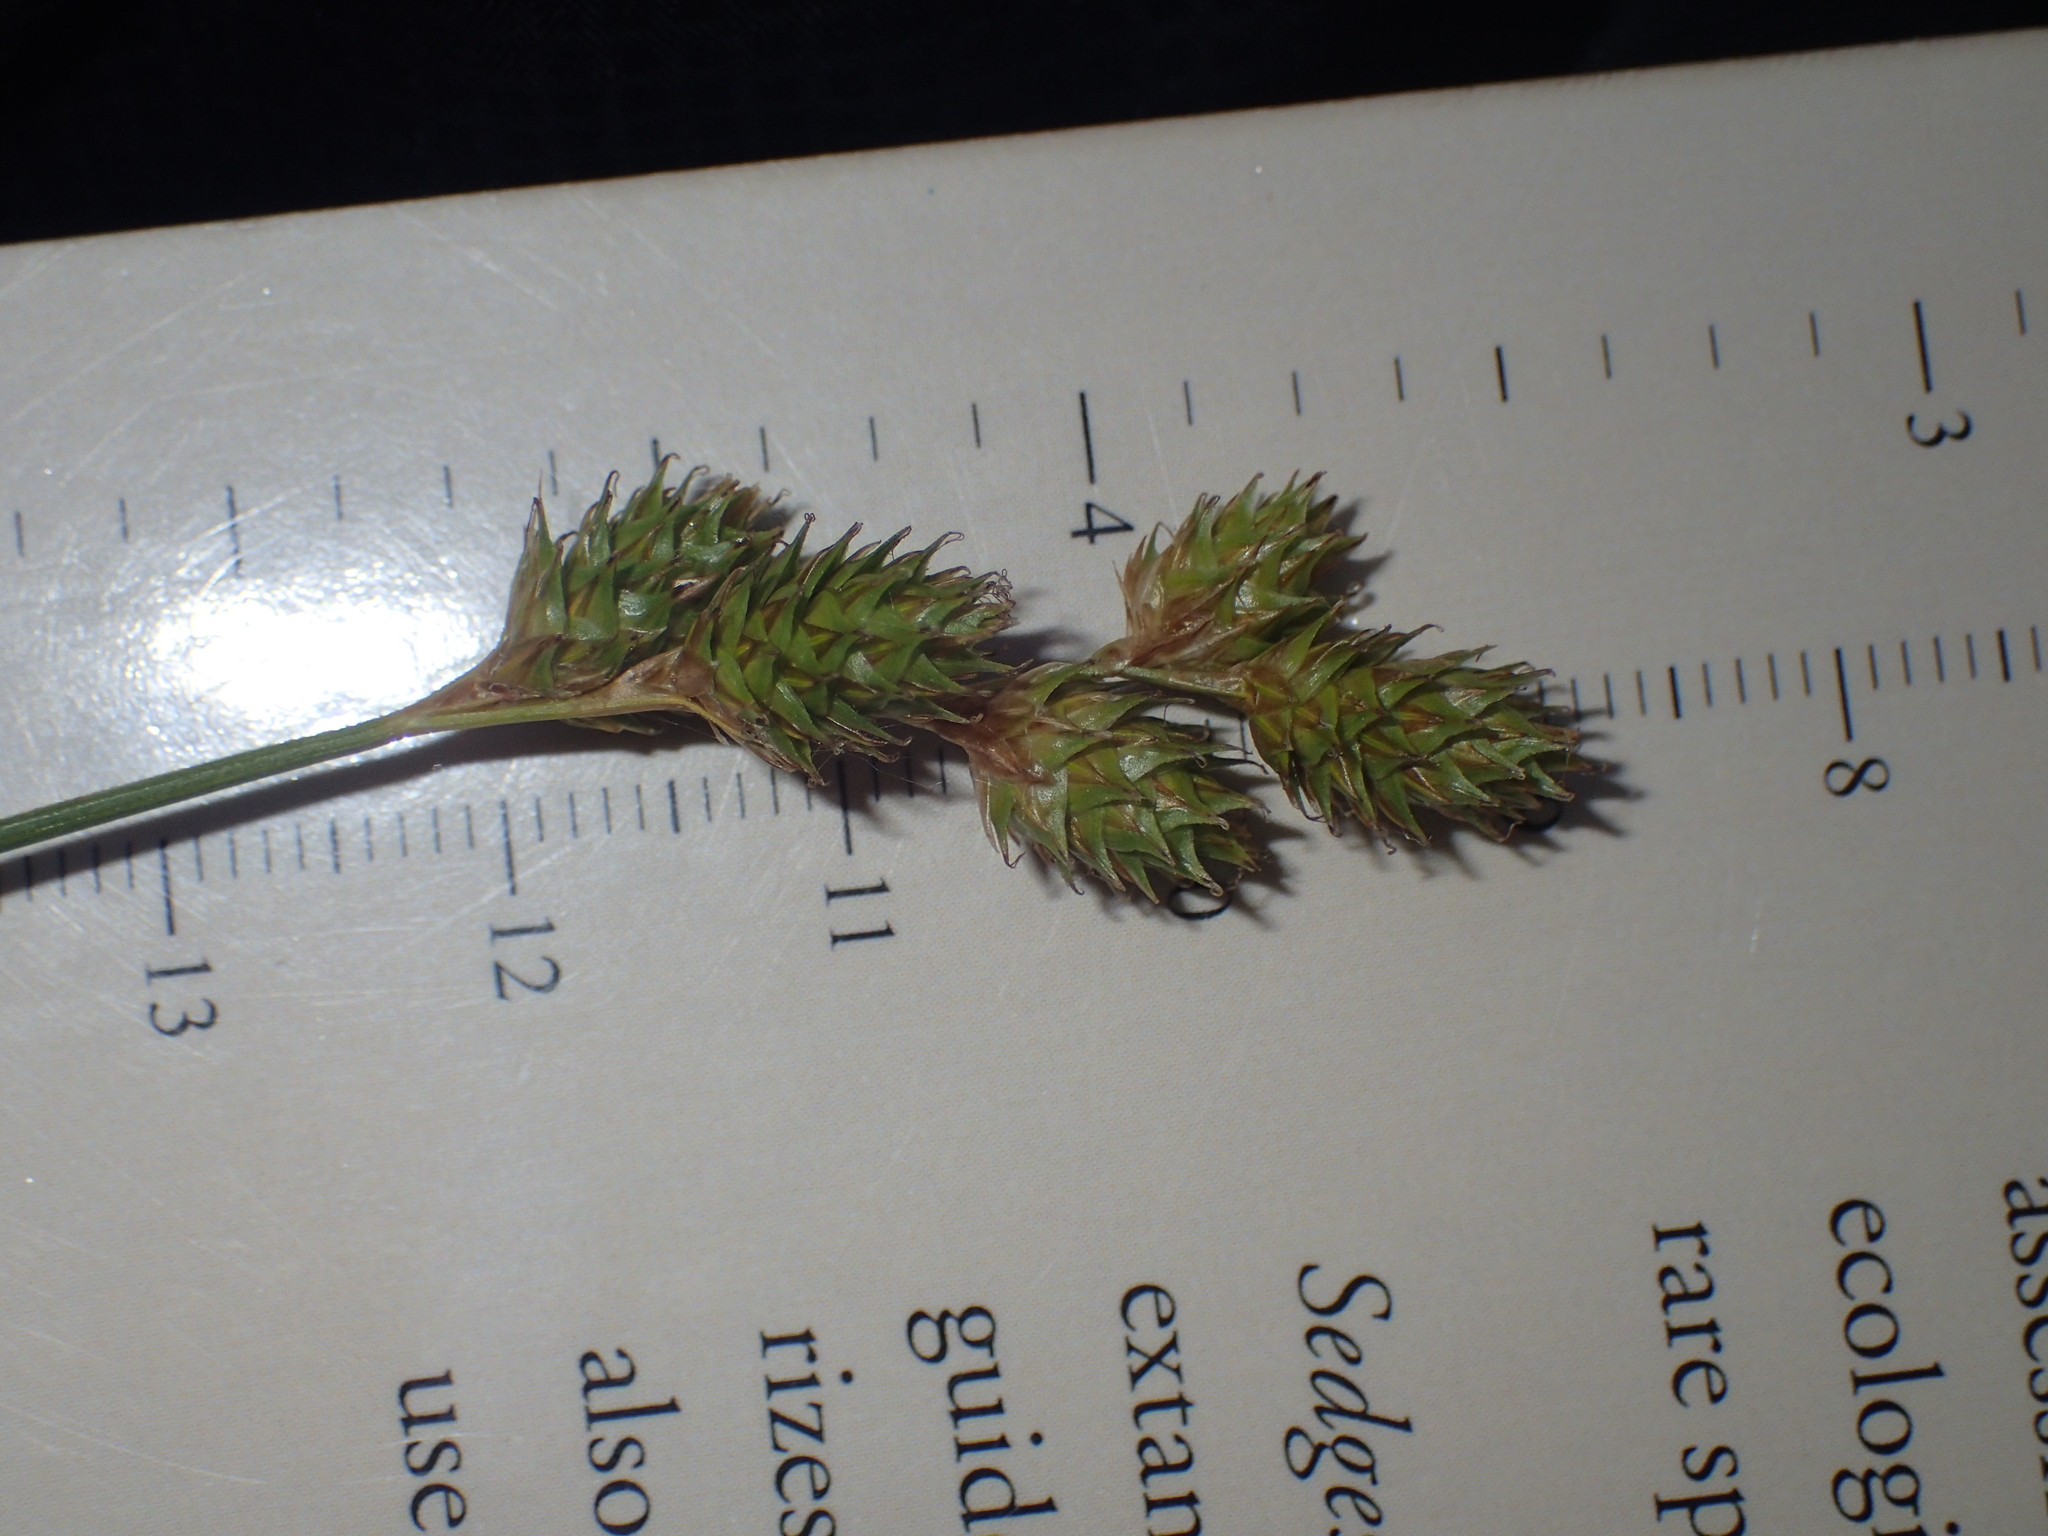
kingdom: Plantae
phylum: Tracheophyta
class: Liliopsida
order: Poales
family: Cyperaceae
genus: Carex
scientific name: Carex brevior
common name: Brevior sedge
